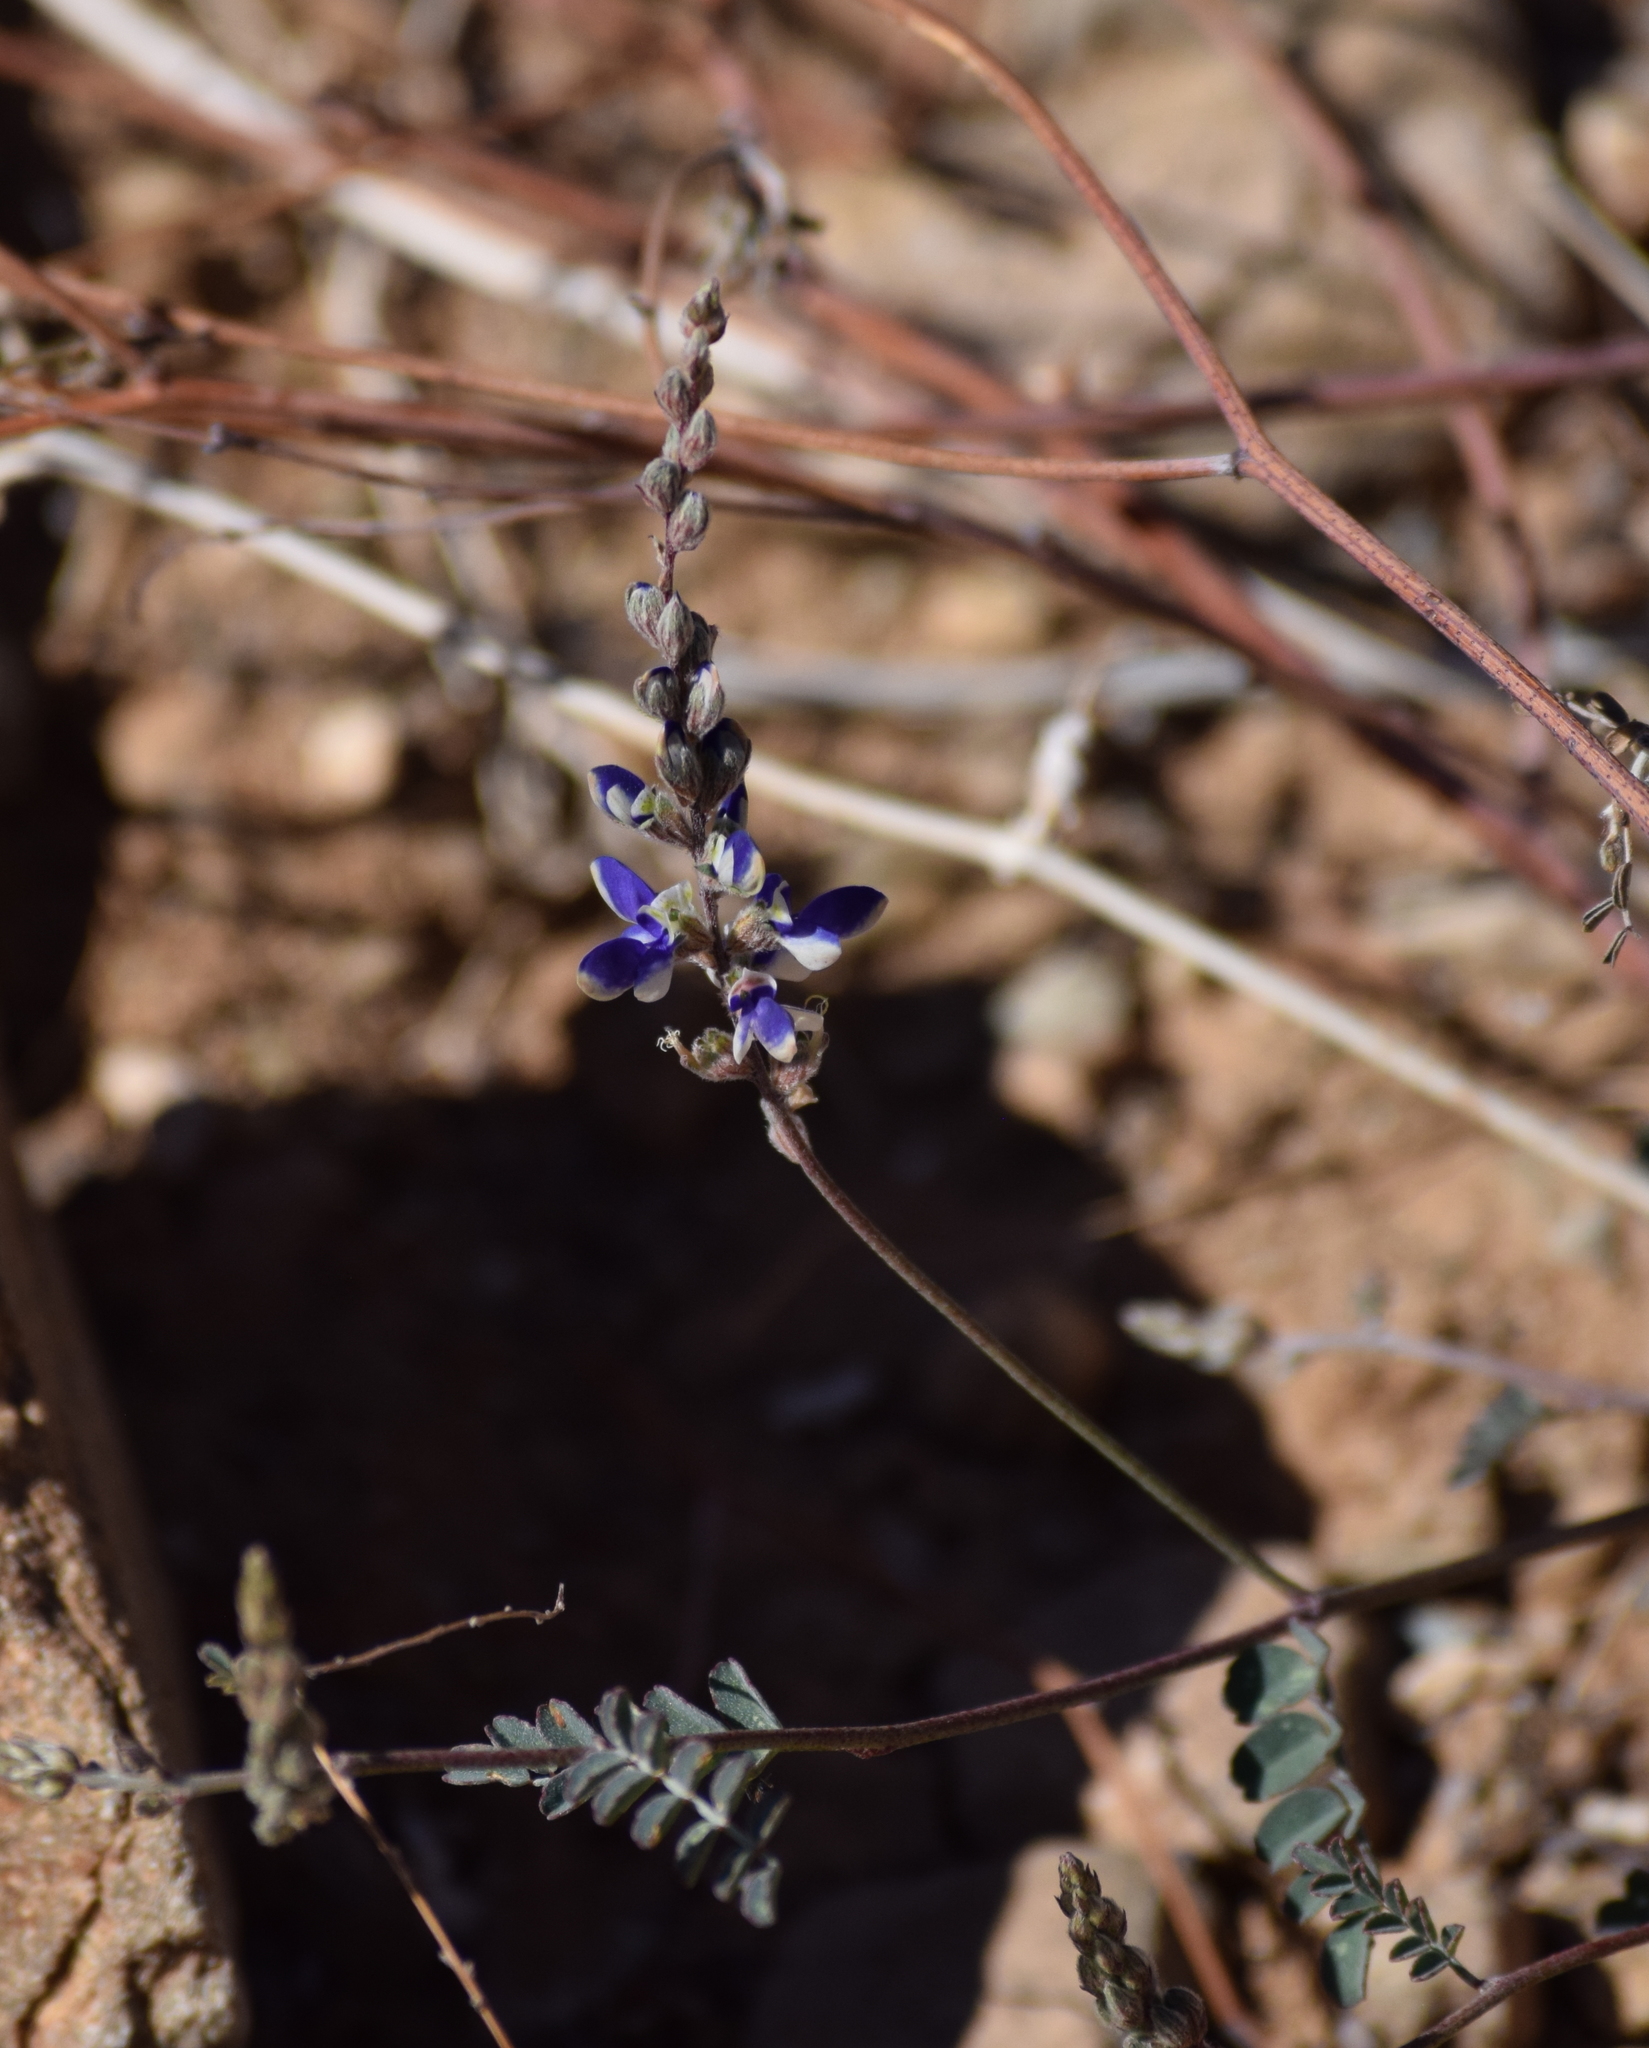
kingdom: Plantae
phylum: Tracheophyta
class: Magnoliopsida
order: Fabales
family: Fabaceae
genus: Marina
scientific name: Marina parryi
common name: Parry's marina
